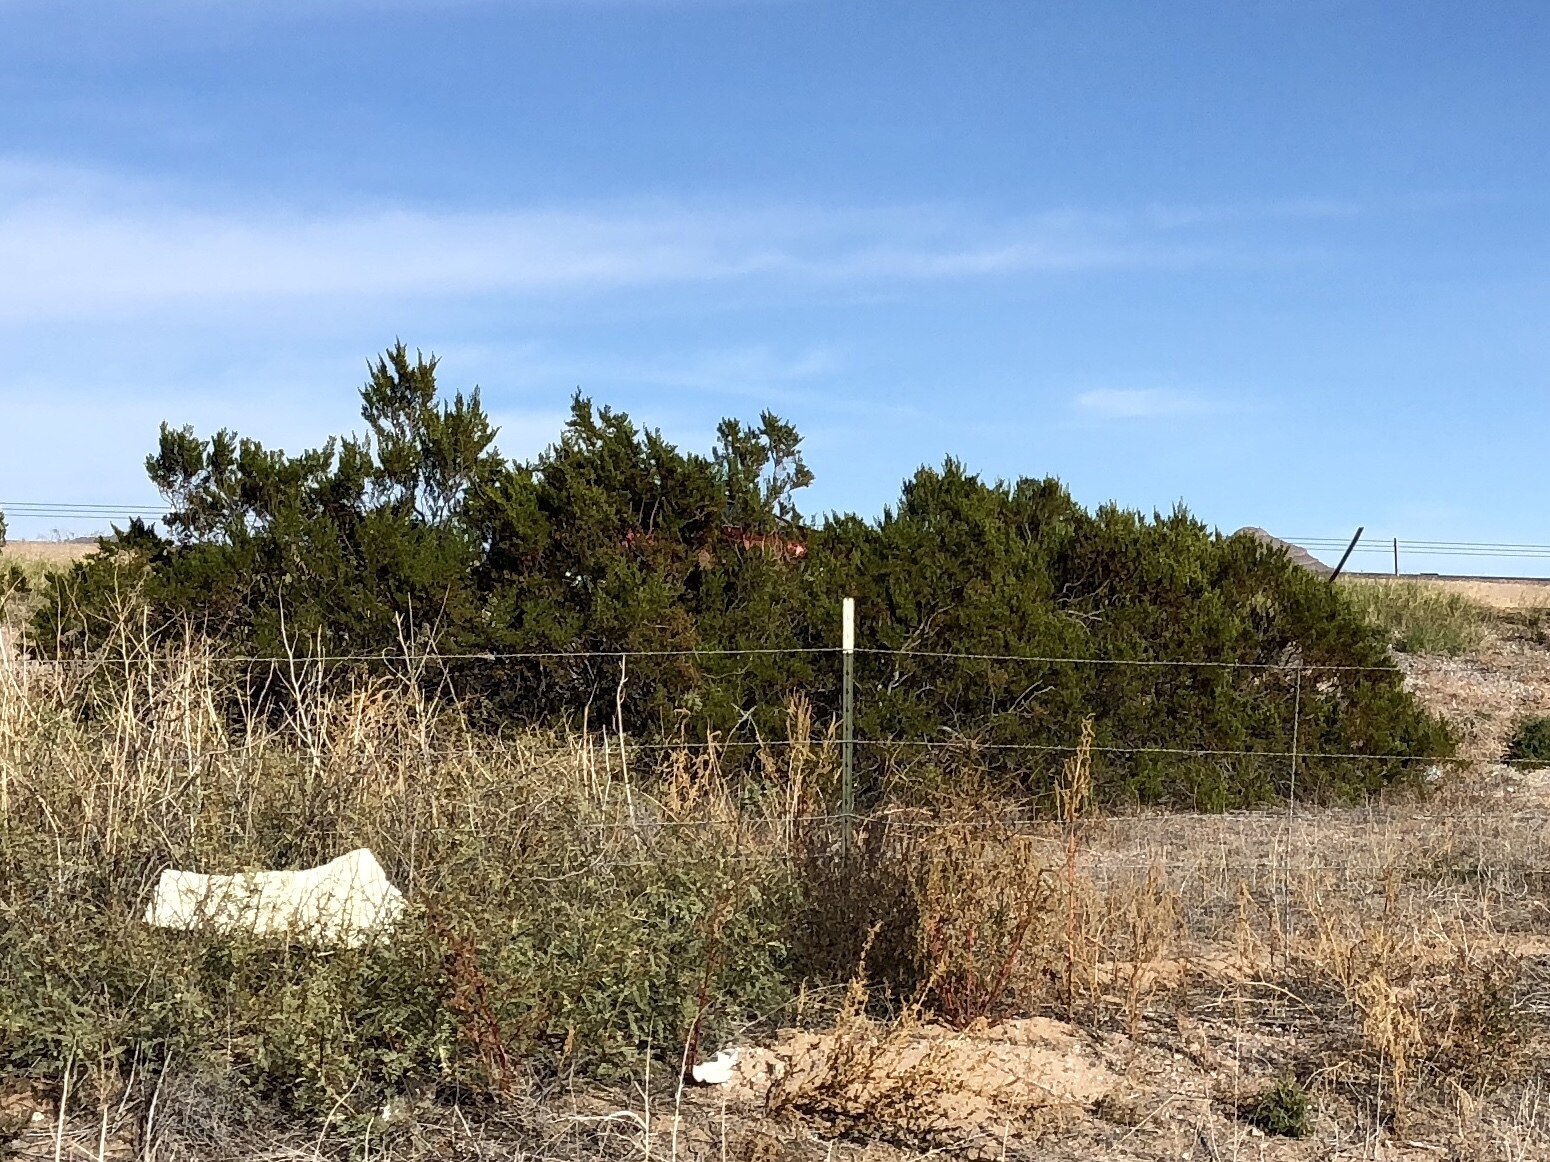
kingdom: Plantae
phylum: Tracheophyta
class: Magnoliopsida
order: Zygophyllales
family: Zygophyllaceae
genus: Larrea
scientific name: Larrea tridentata
